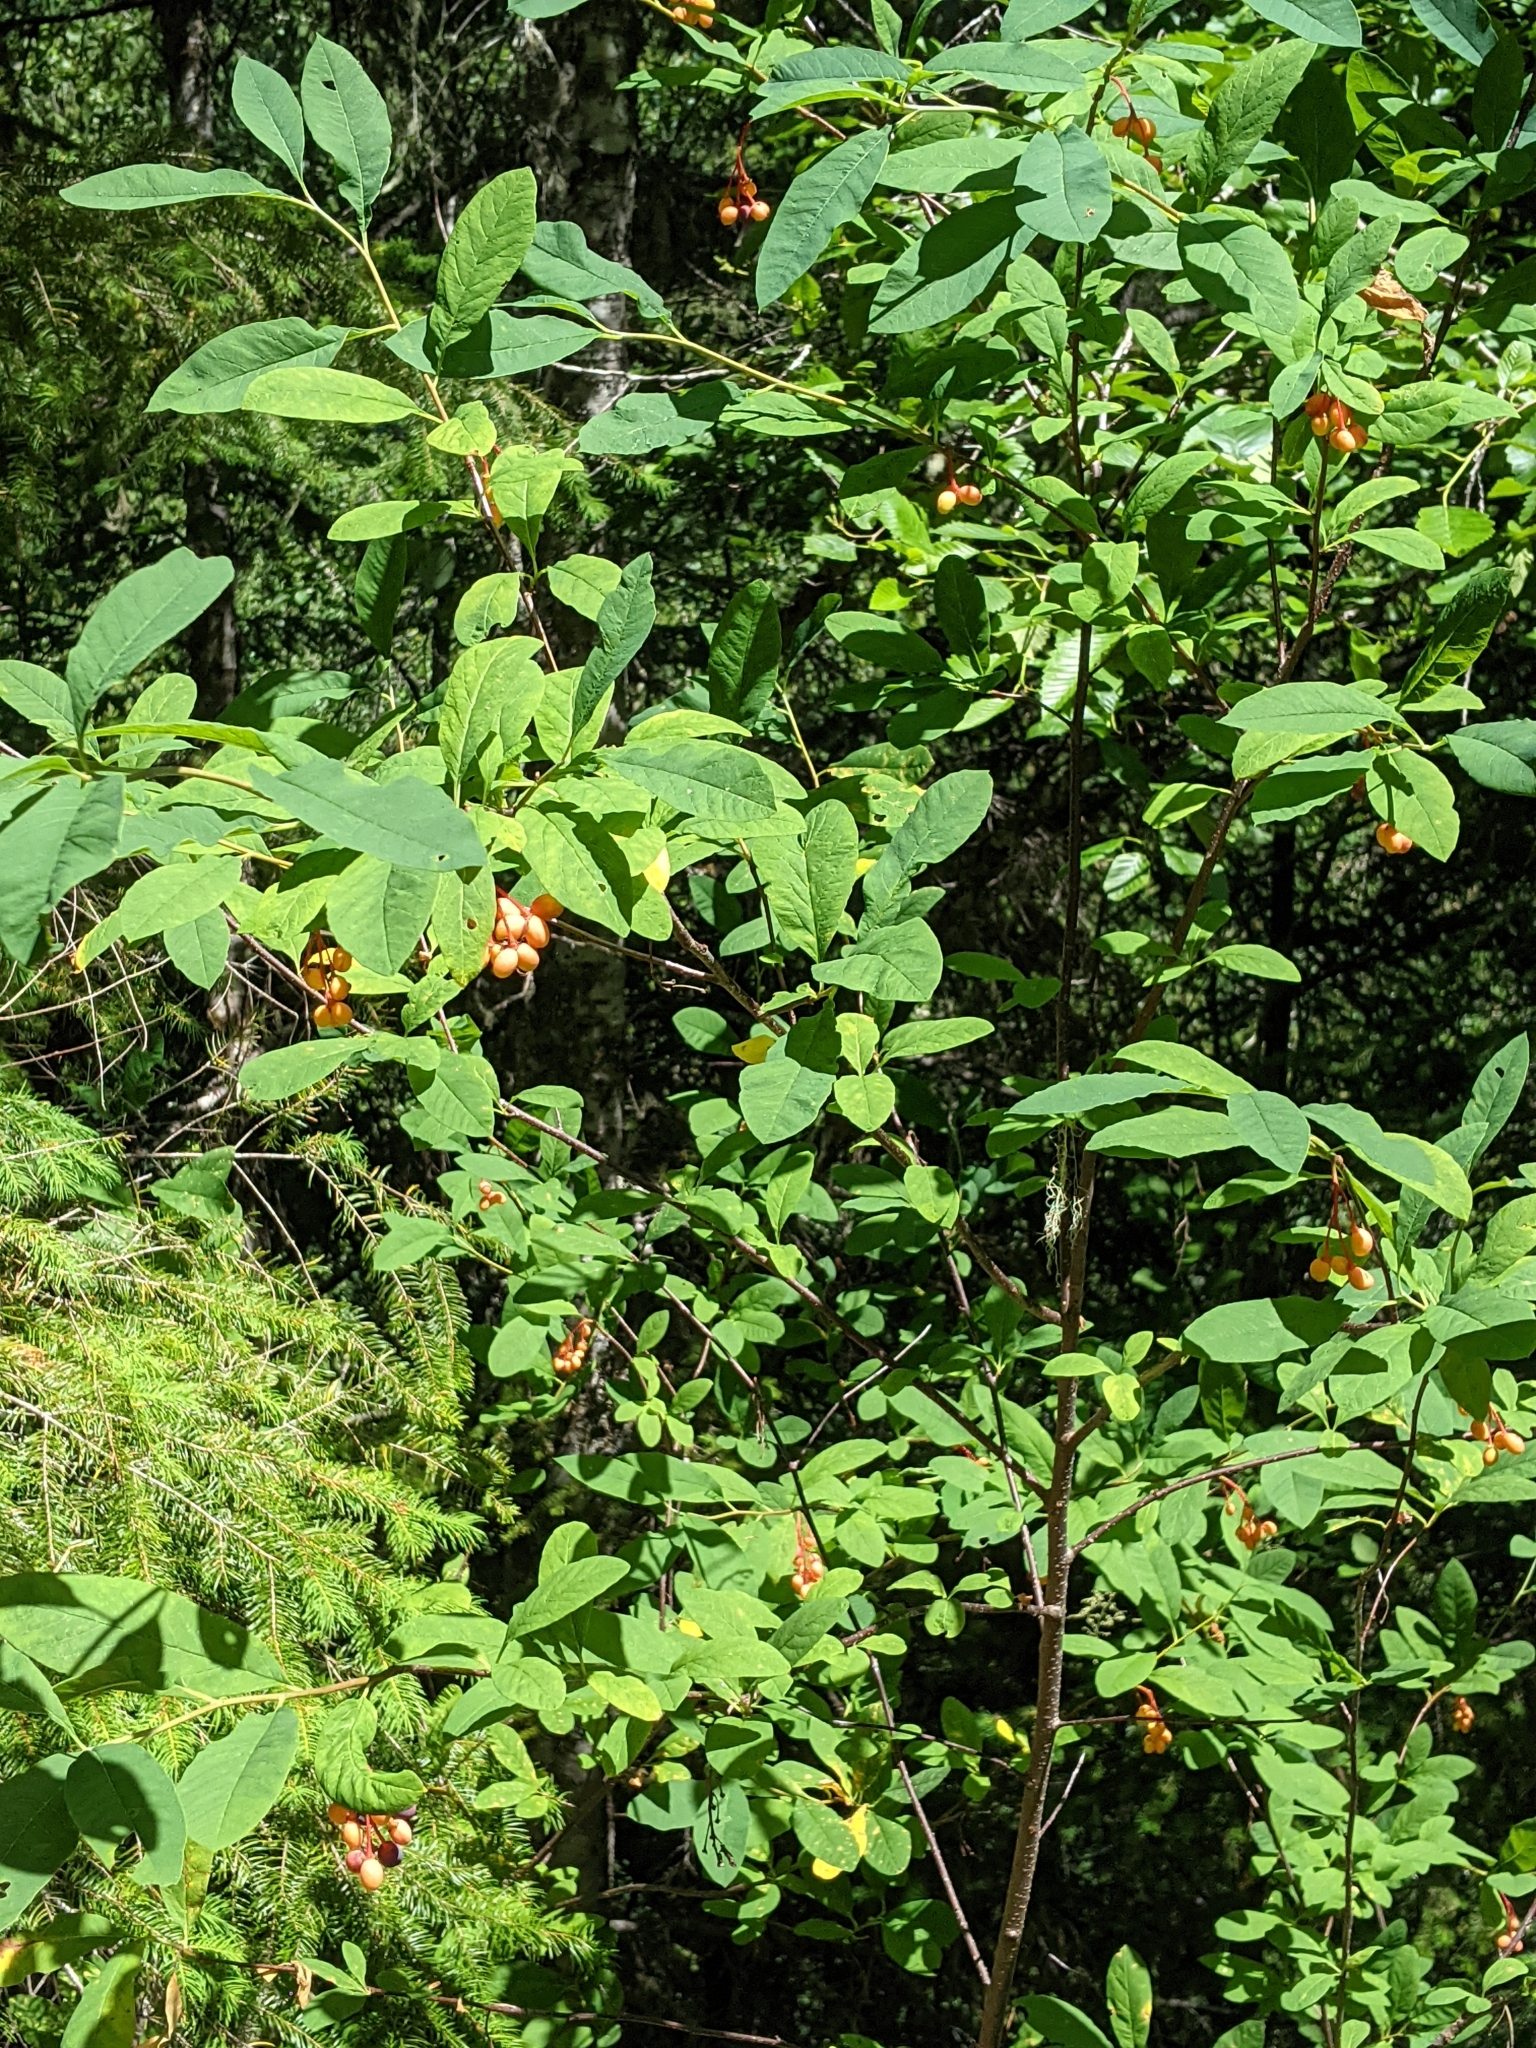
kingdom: Plantae
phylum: Tracheophyta
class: Magnoliopsida
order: Rosales
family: Rosaceae
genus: Oemleria
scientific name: Oemleria cerasiformis
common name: Osoberry
